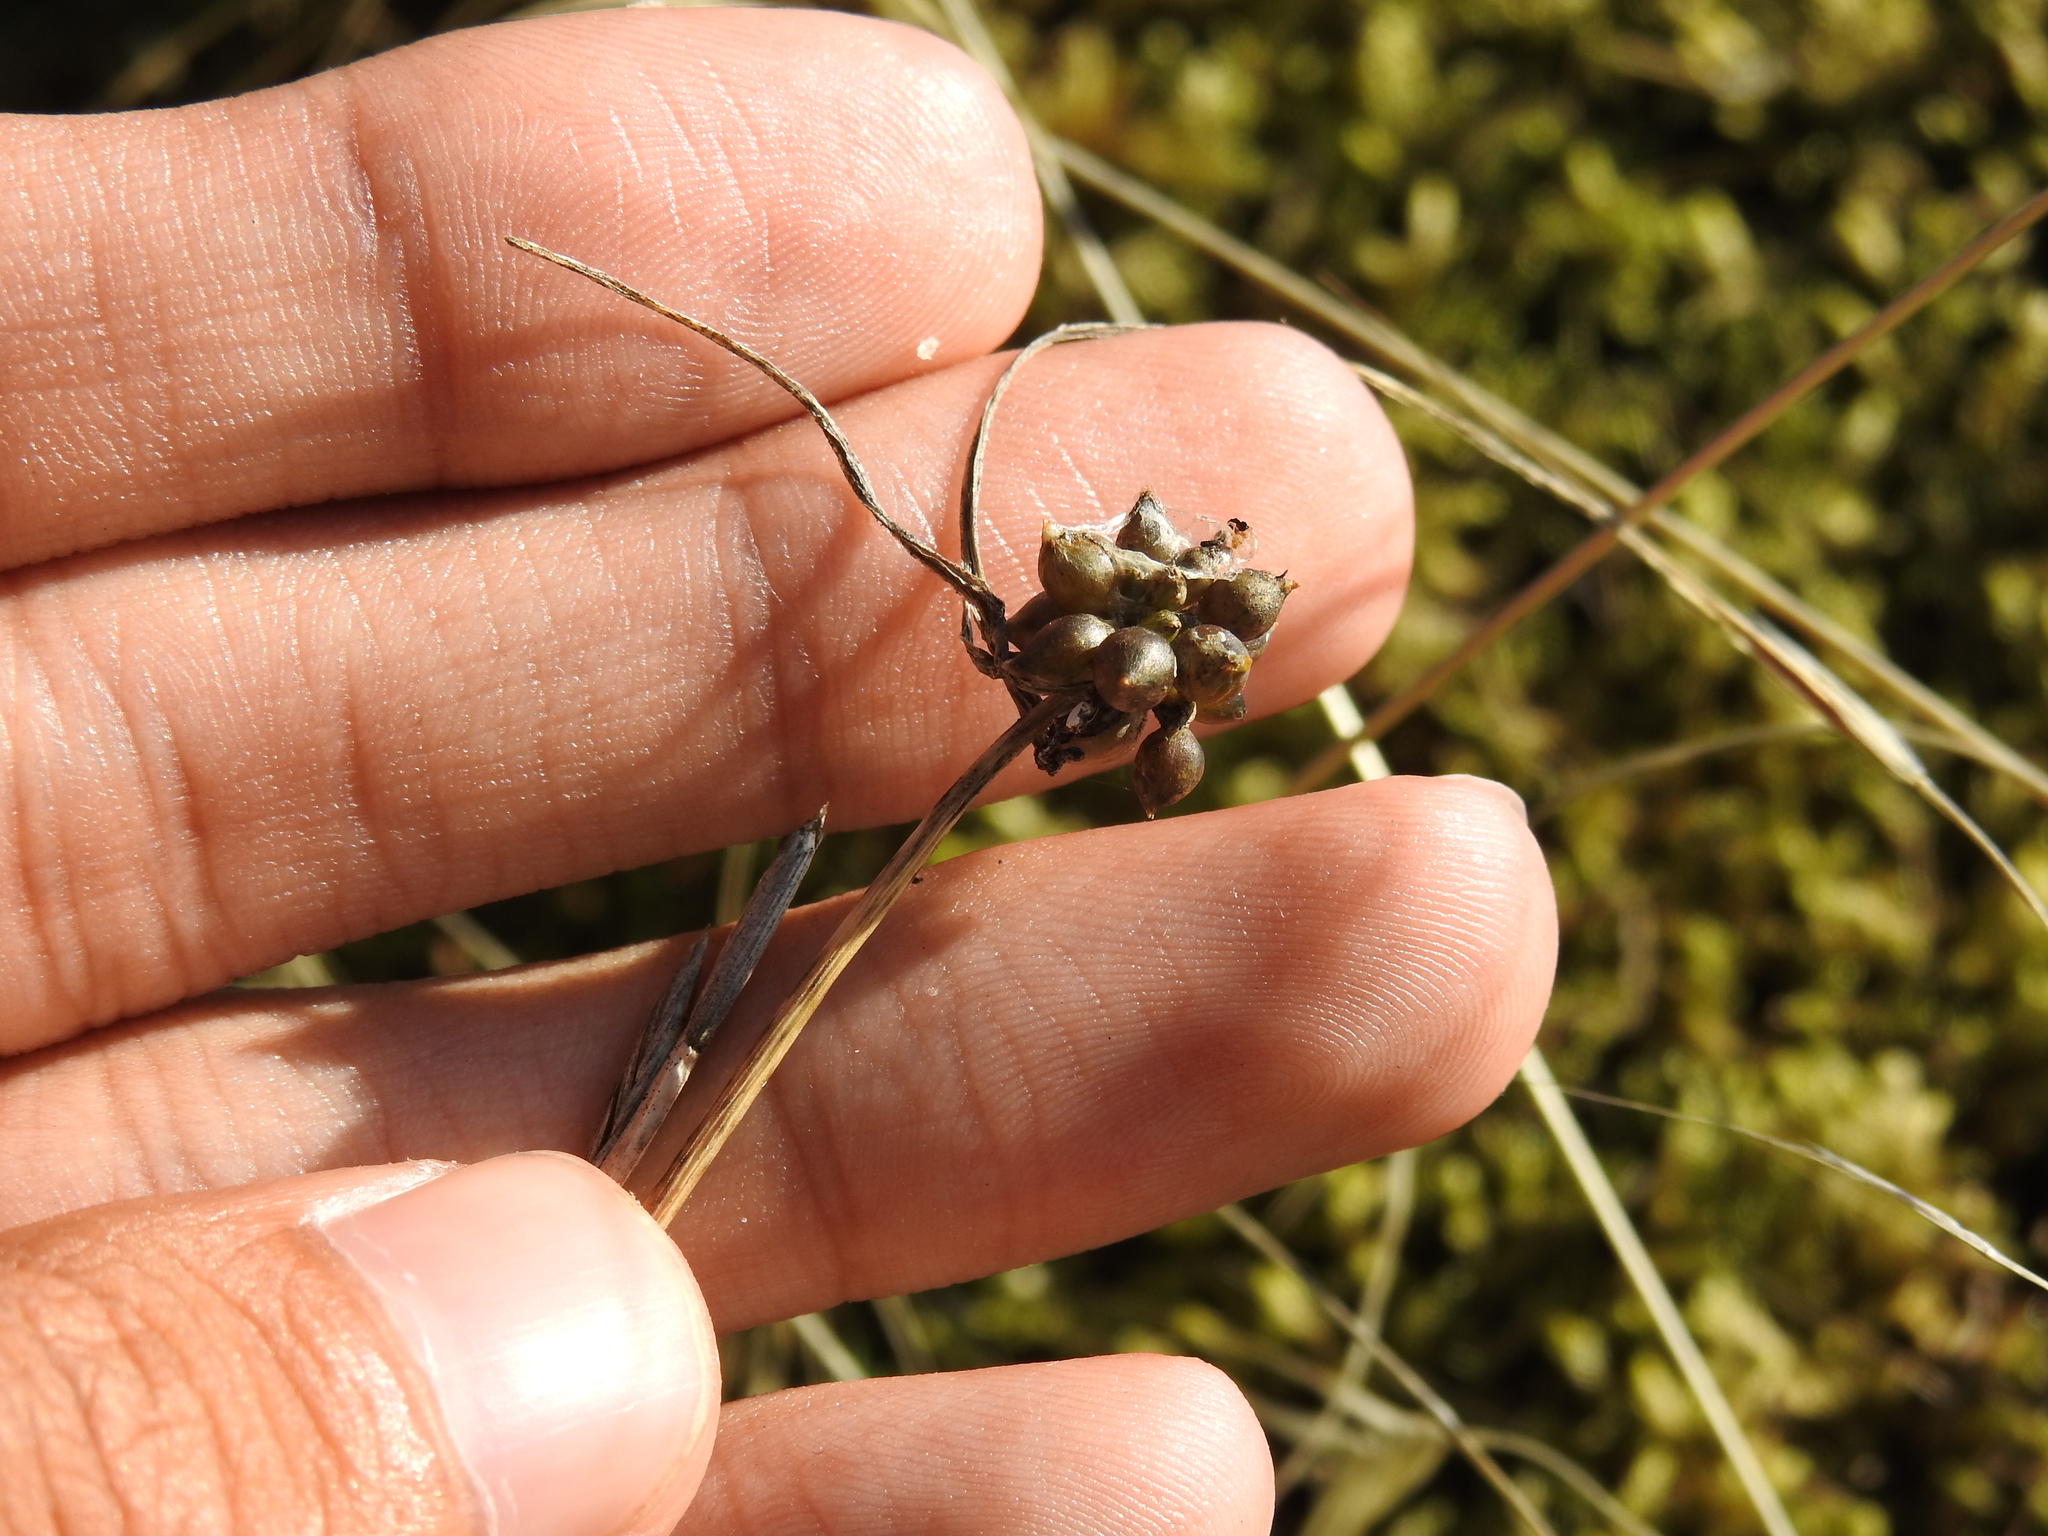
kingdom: Plantae
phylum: Tracheophyta
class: Liliopsida
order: Asparagales
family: Amaryllidaceae
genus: Allium
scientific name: Allium oleraceum
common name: Field garlic
